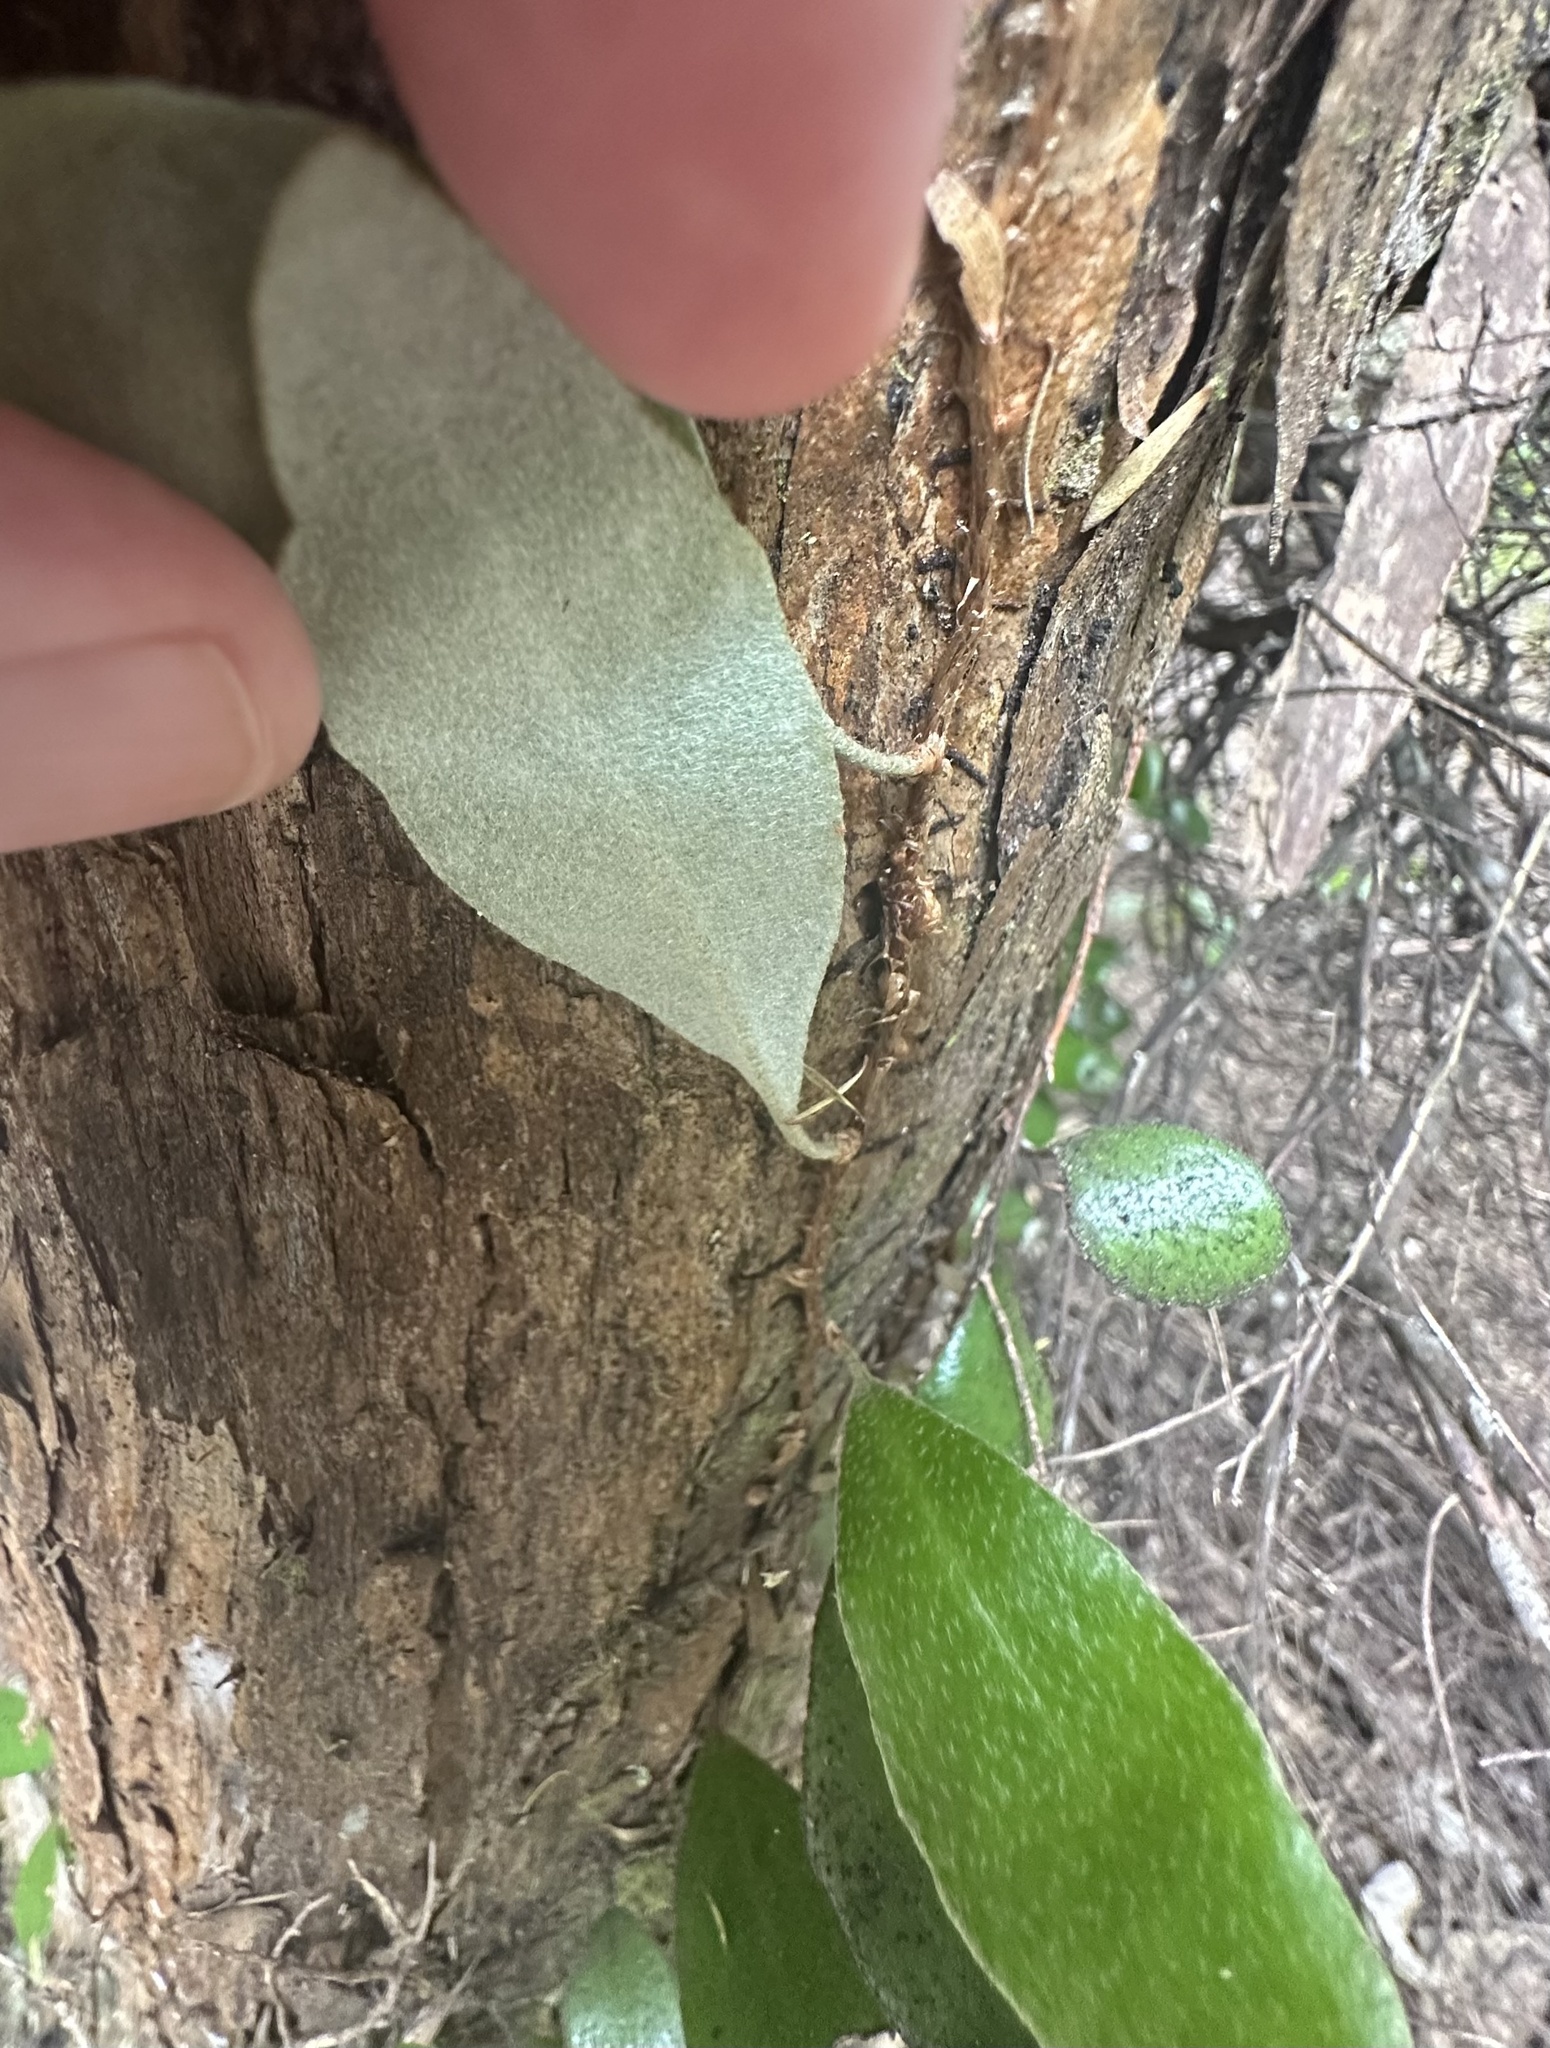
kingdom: Plantae
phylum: Tracheophyta
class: Polypodiopsida
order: Polypodiales
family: Polypodiaceae
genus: Pyrrosia
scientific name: Pyrrosia eleagnifolia
